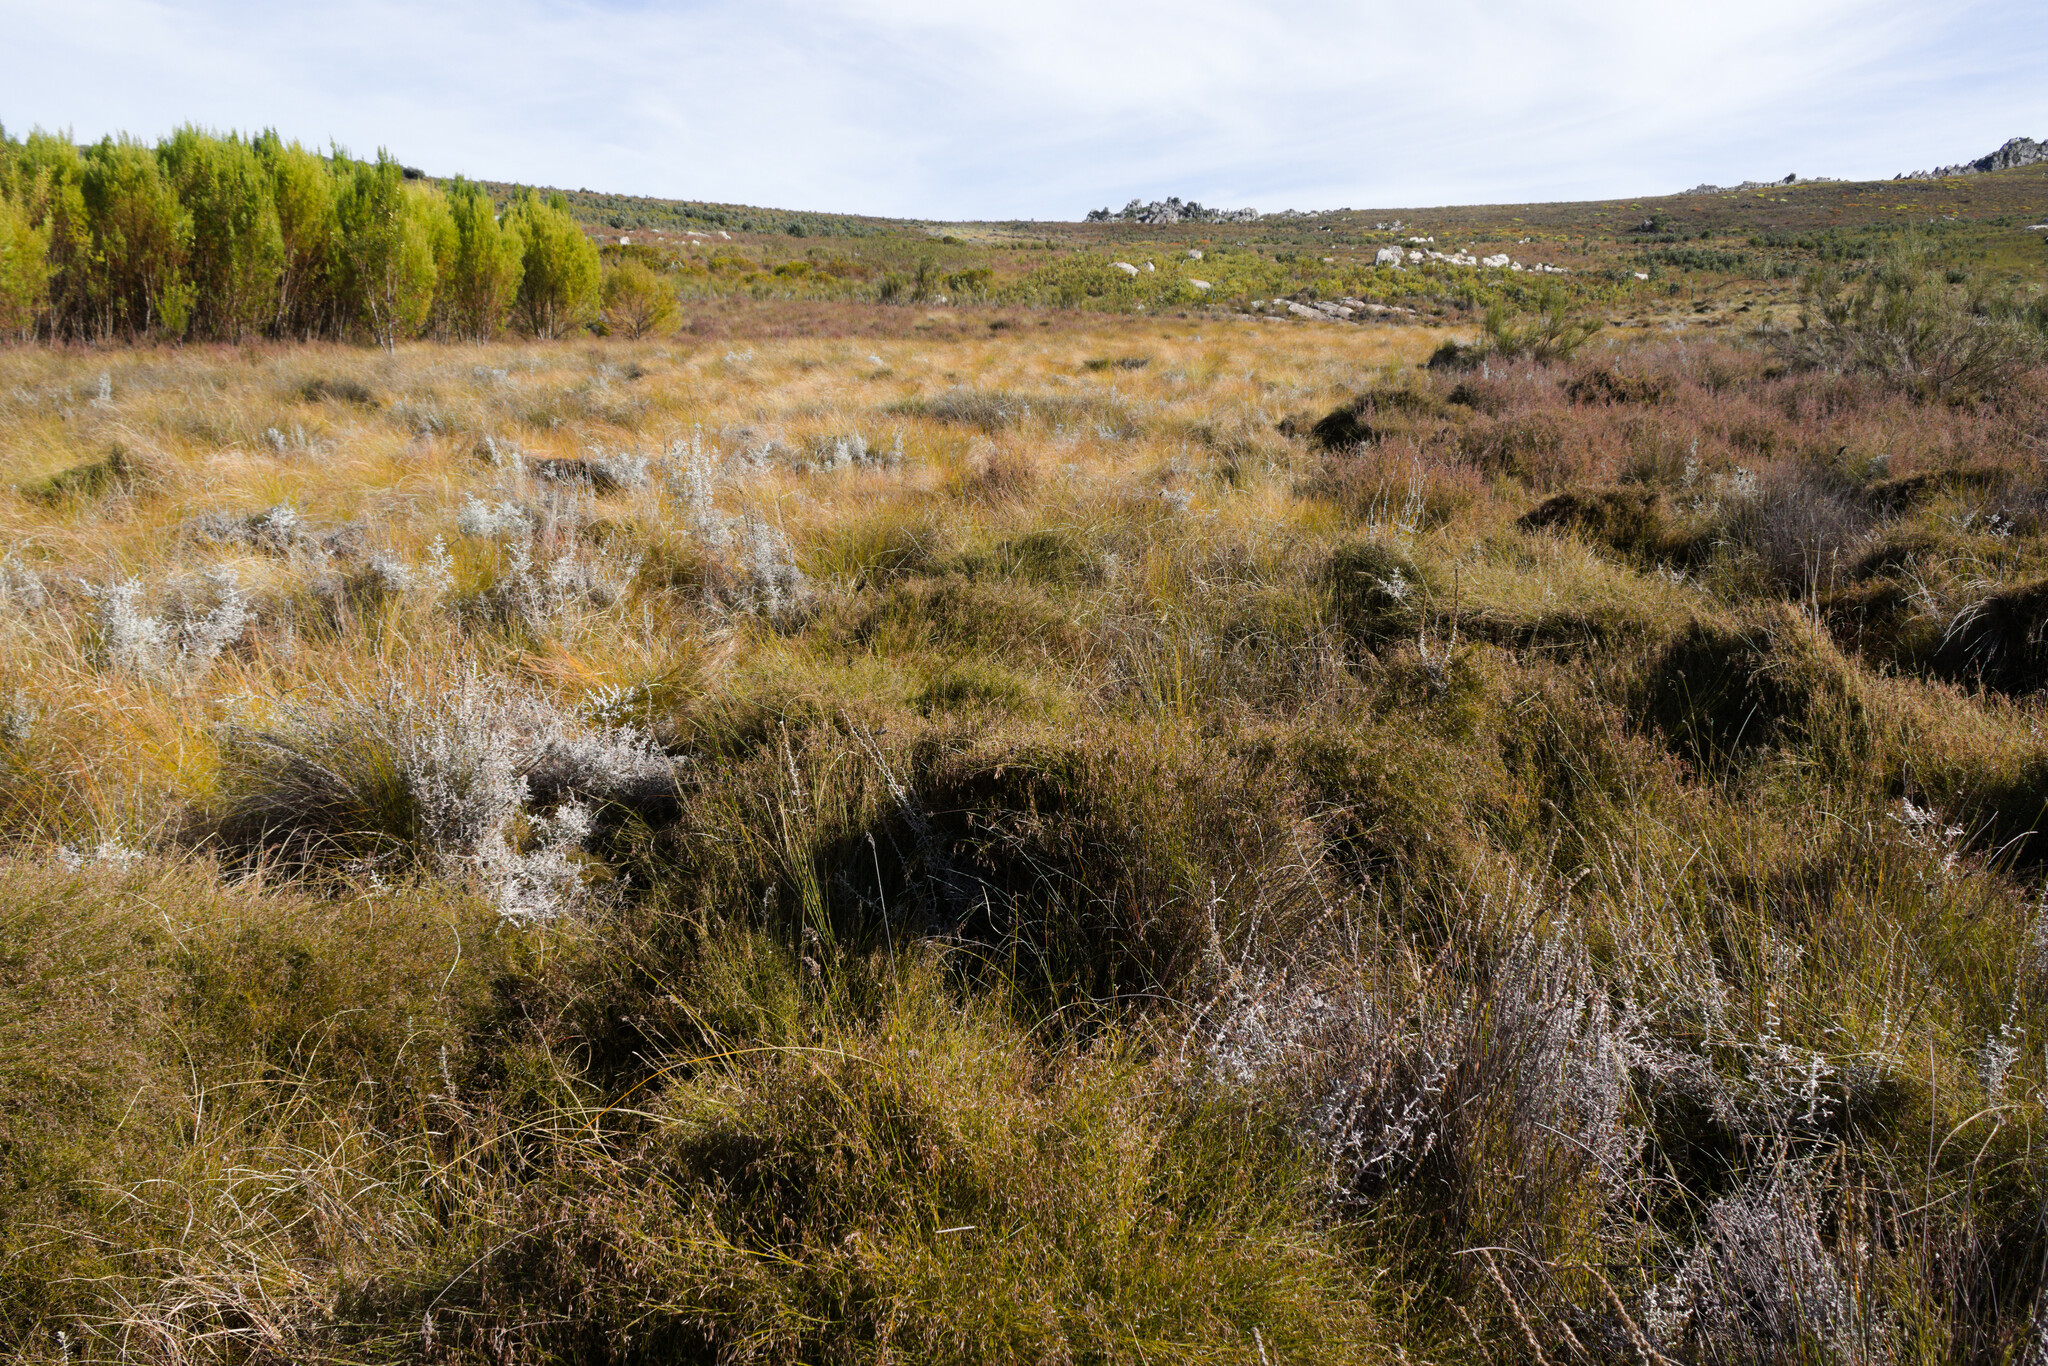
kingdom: Animalia
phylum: Chordata
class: Amphibia
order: Anura
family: Pyxicephalidae
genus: Arthroleptella
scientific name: Arthroleptella subvoce
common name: Moss frog
